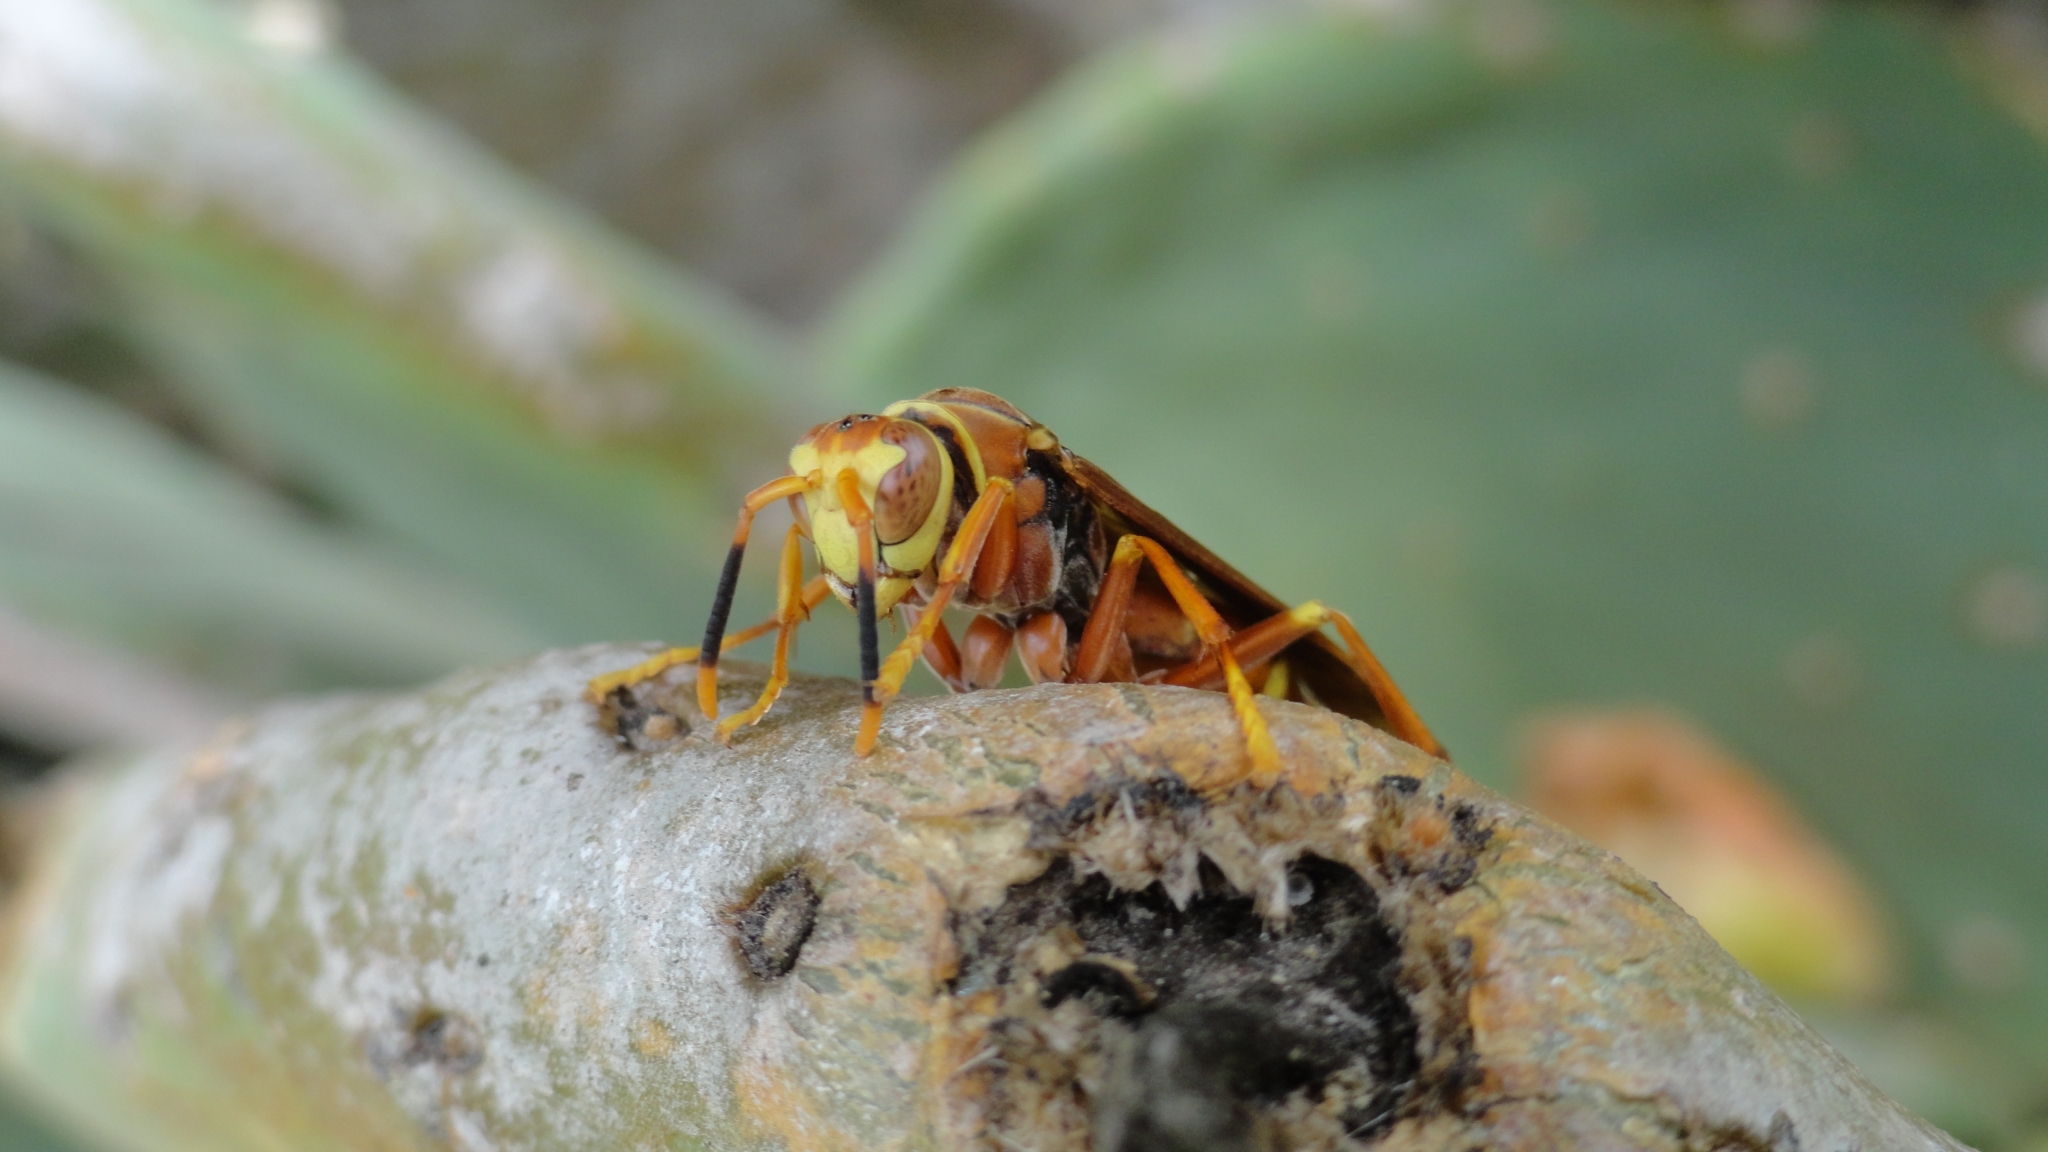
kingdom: Animalia
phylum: Arthropoda
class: Insecta
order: Hymenoptera
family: Eumenidae
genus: Polistes
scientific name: Polistes cavapyta
